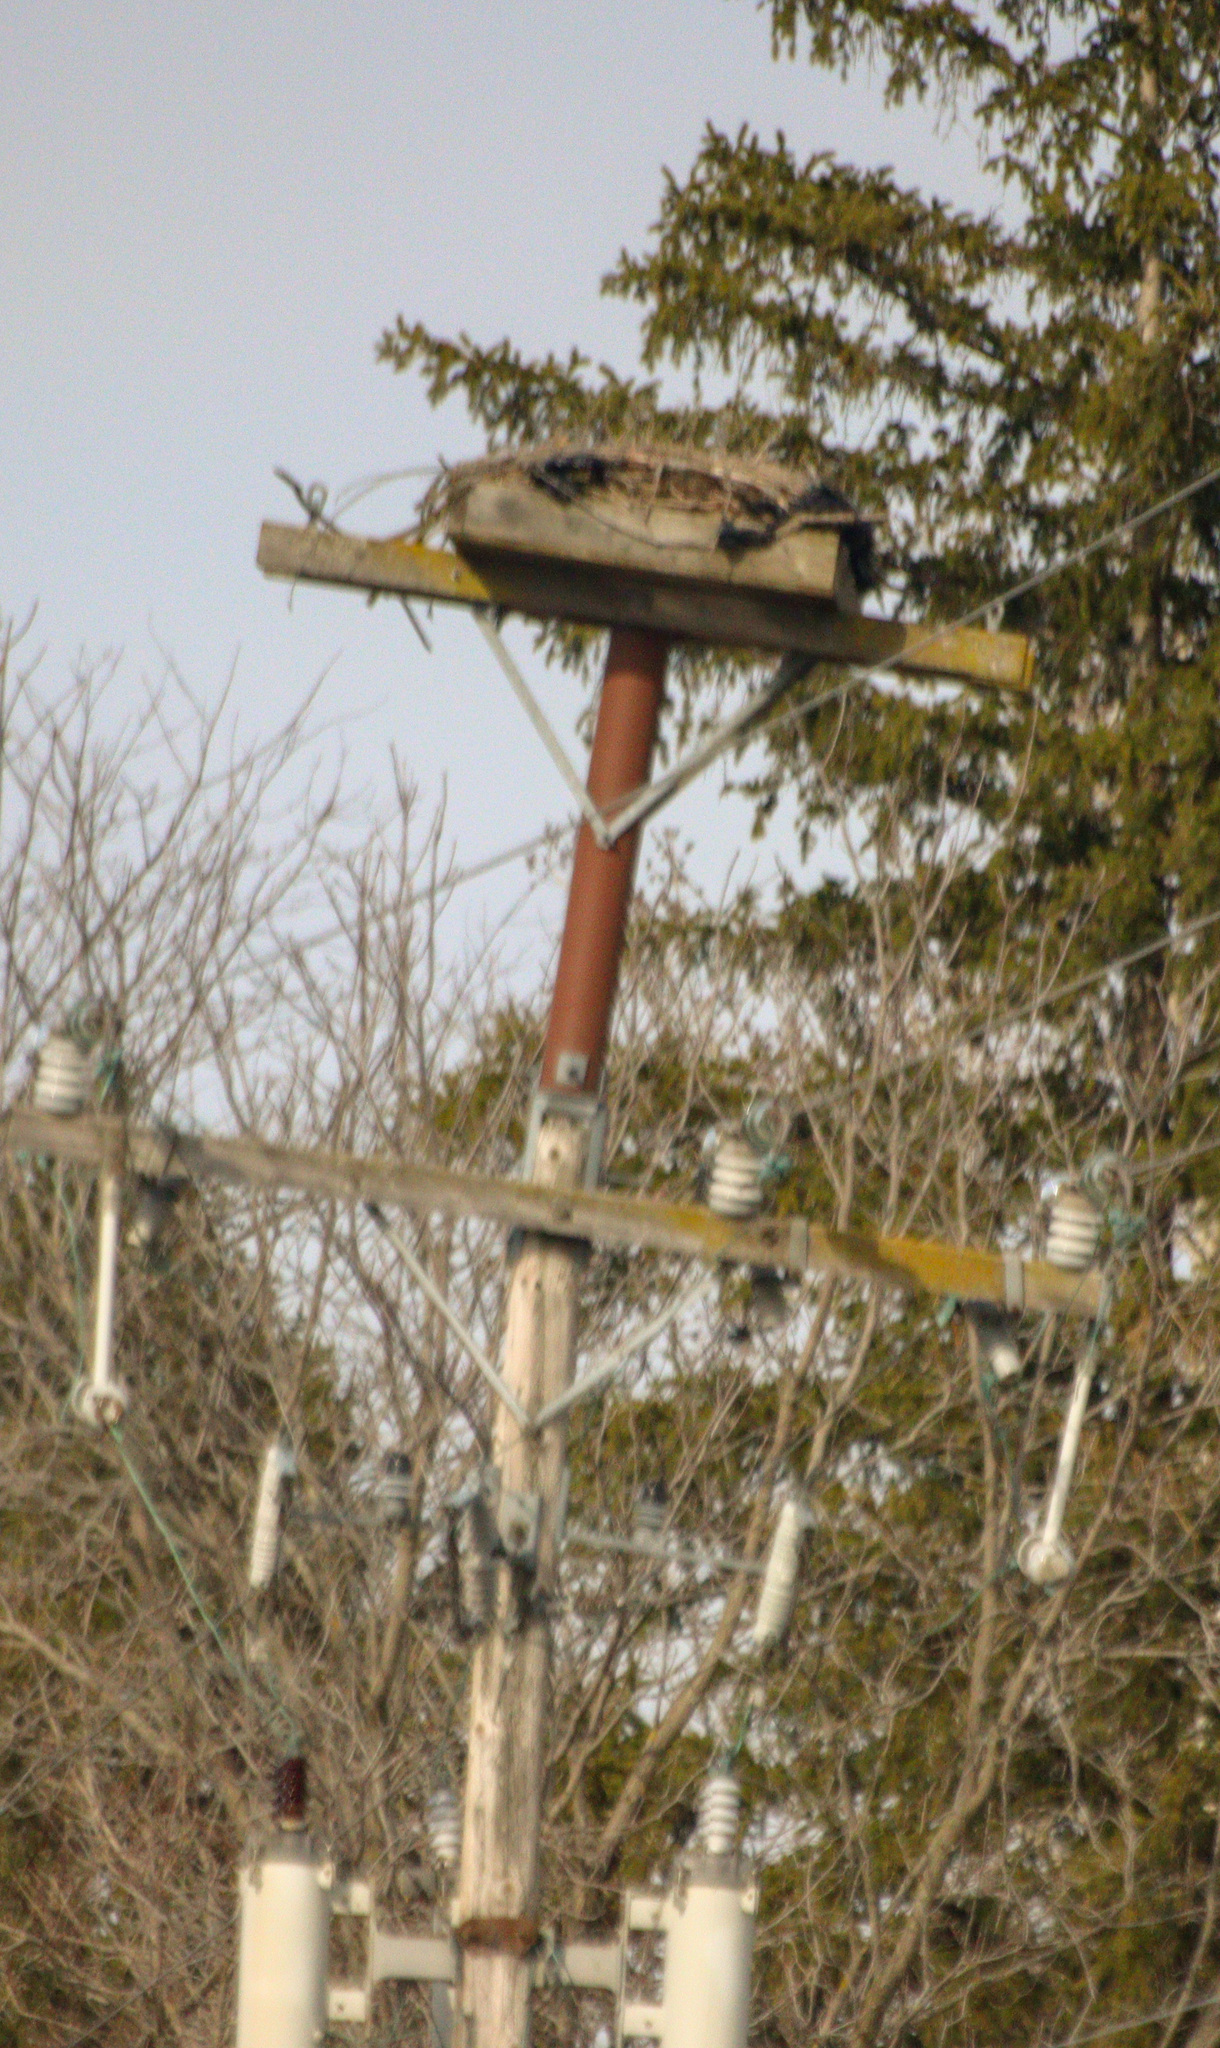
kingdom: Animalia
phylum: Chordata
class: Aves
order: Accipitriformes
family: Pandionidae
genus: Pandion
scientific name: Pandion haliaetus
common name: Osprey
